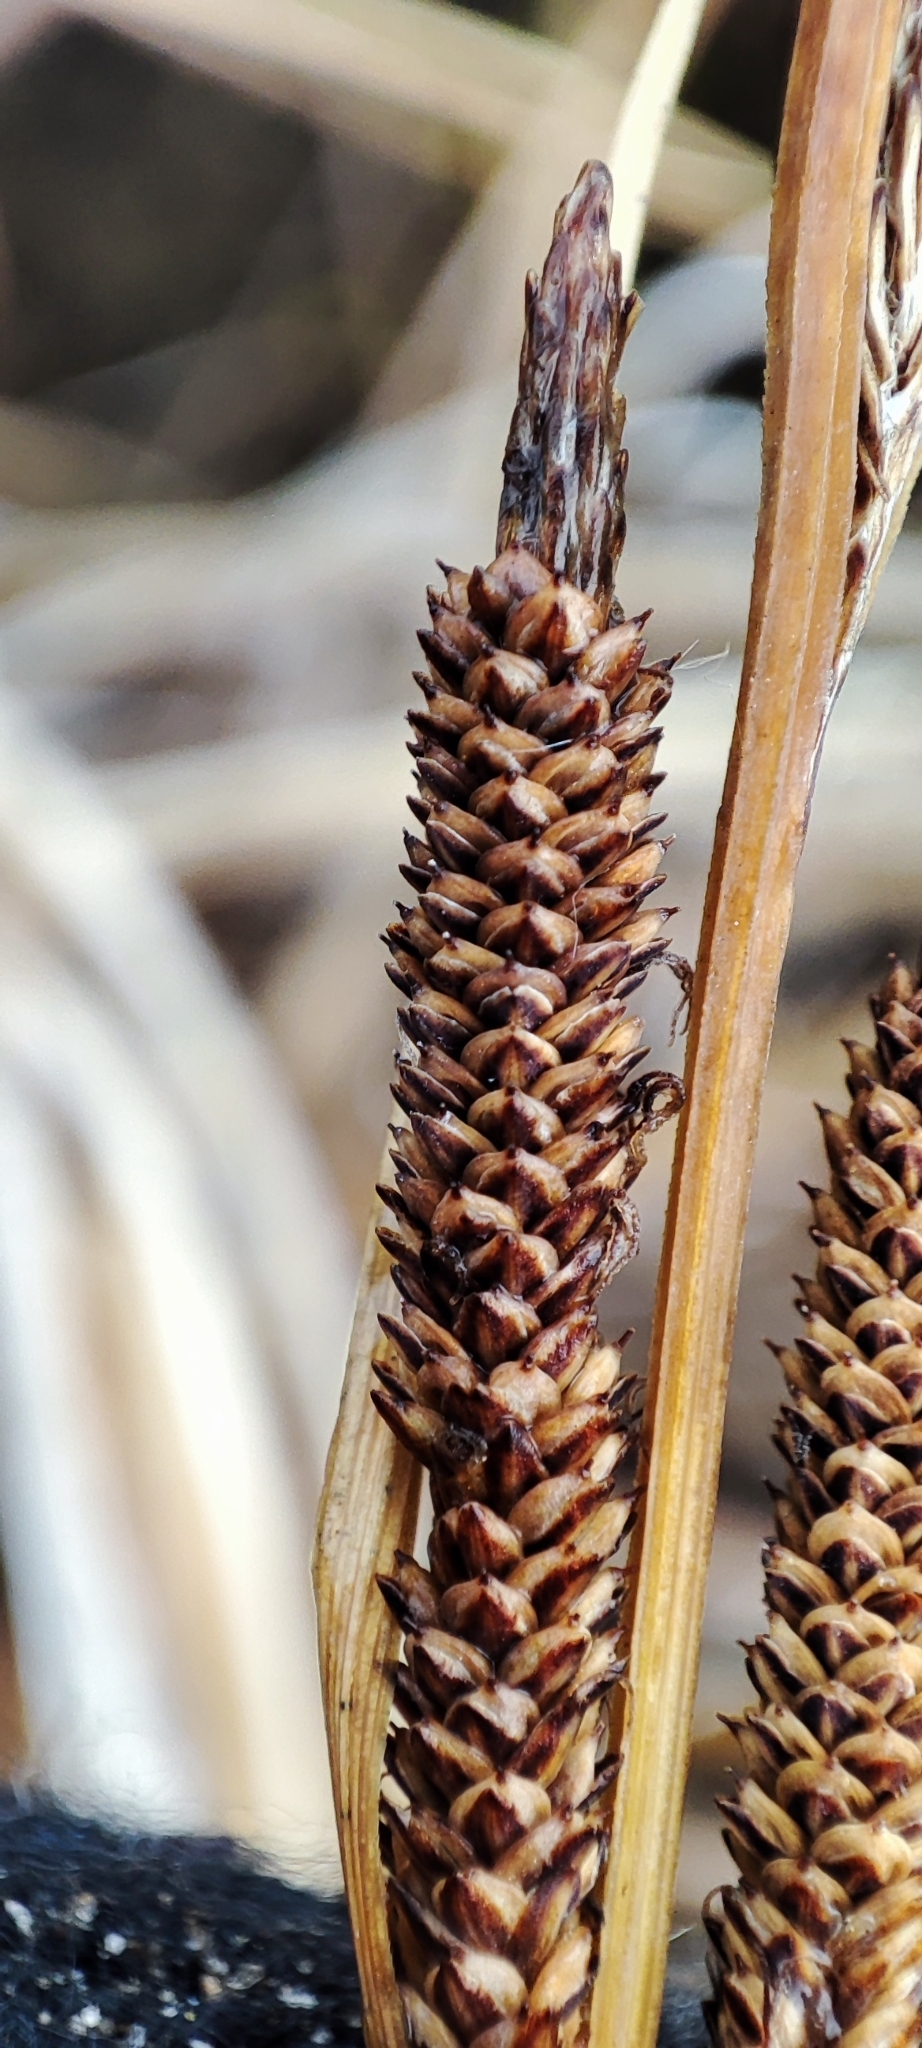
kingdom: Plantae
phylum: Tracheophyta
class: Liliopsida
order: Poales
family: Cyperaceae
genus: Carex
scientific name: Carex aquatilis
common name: Water sedge
